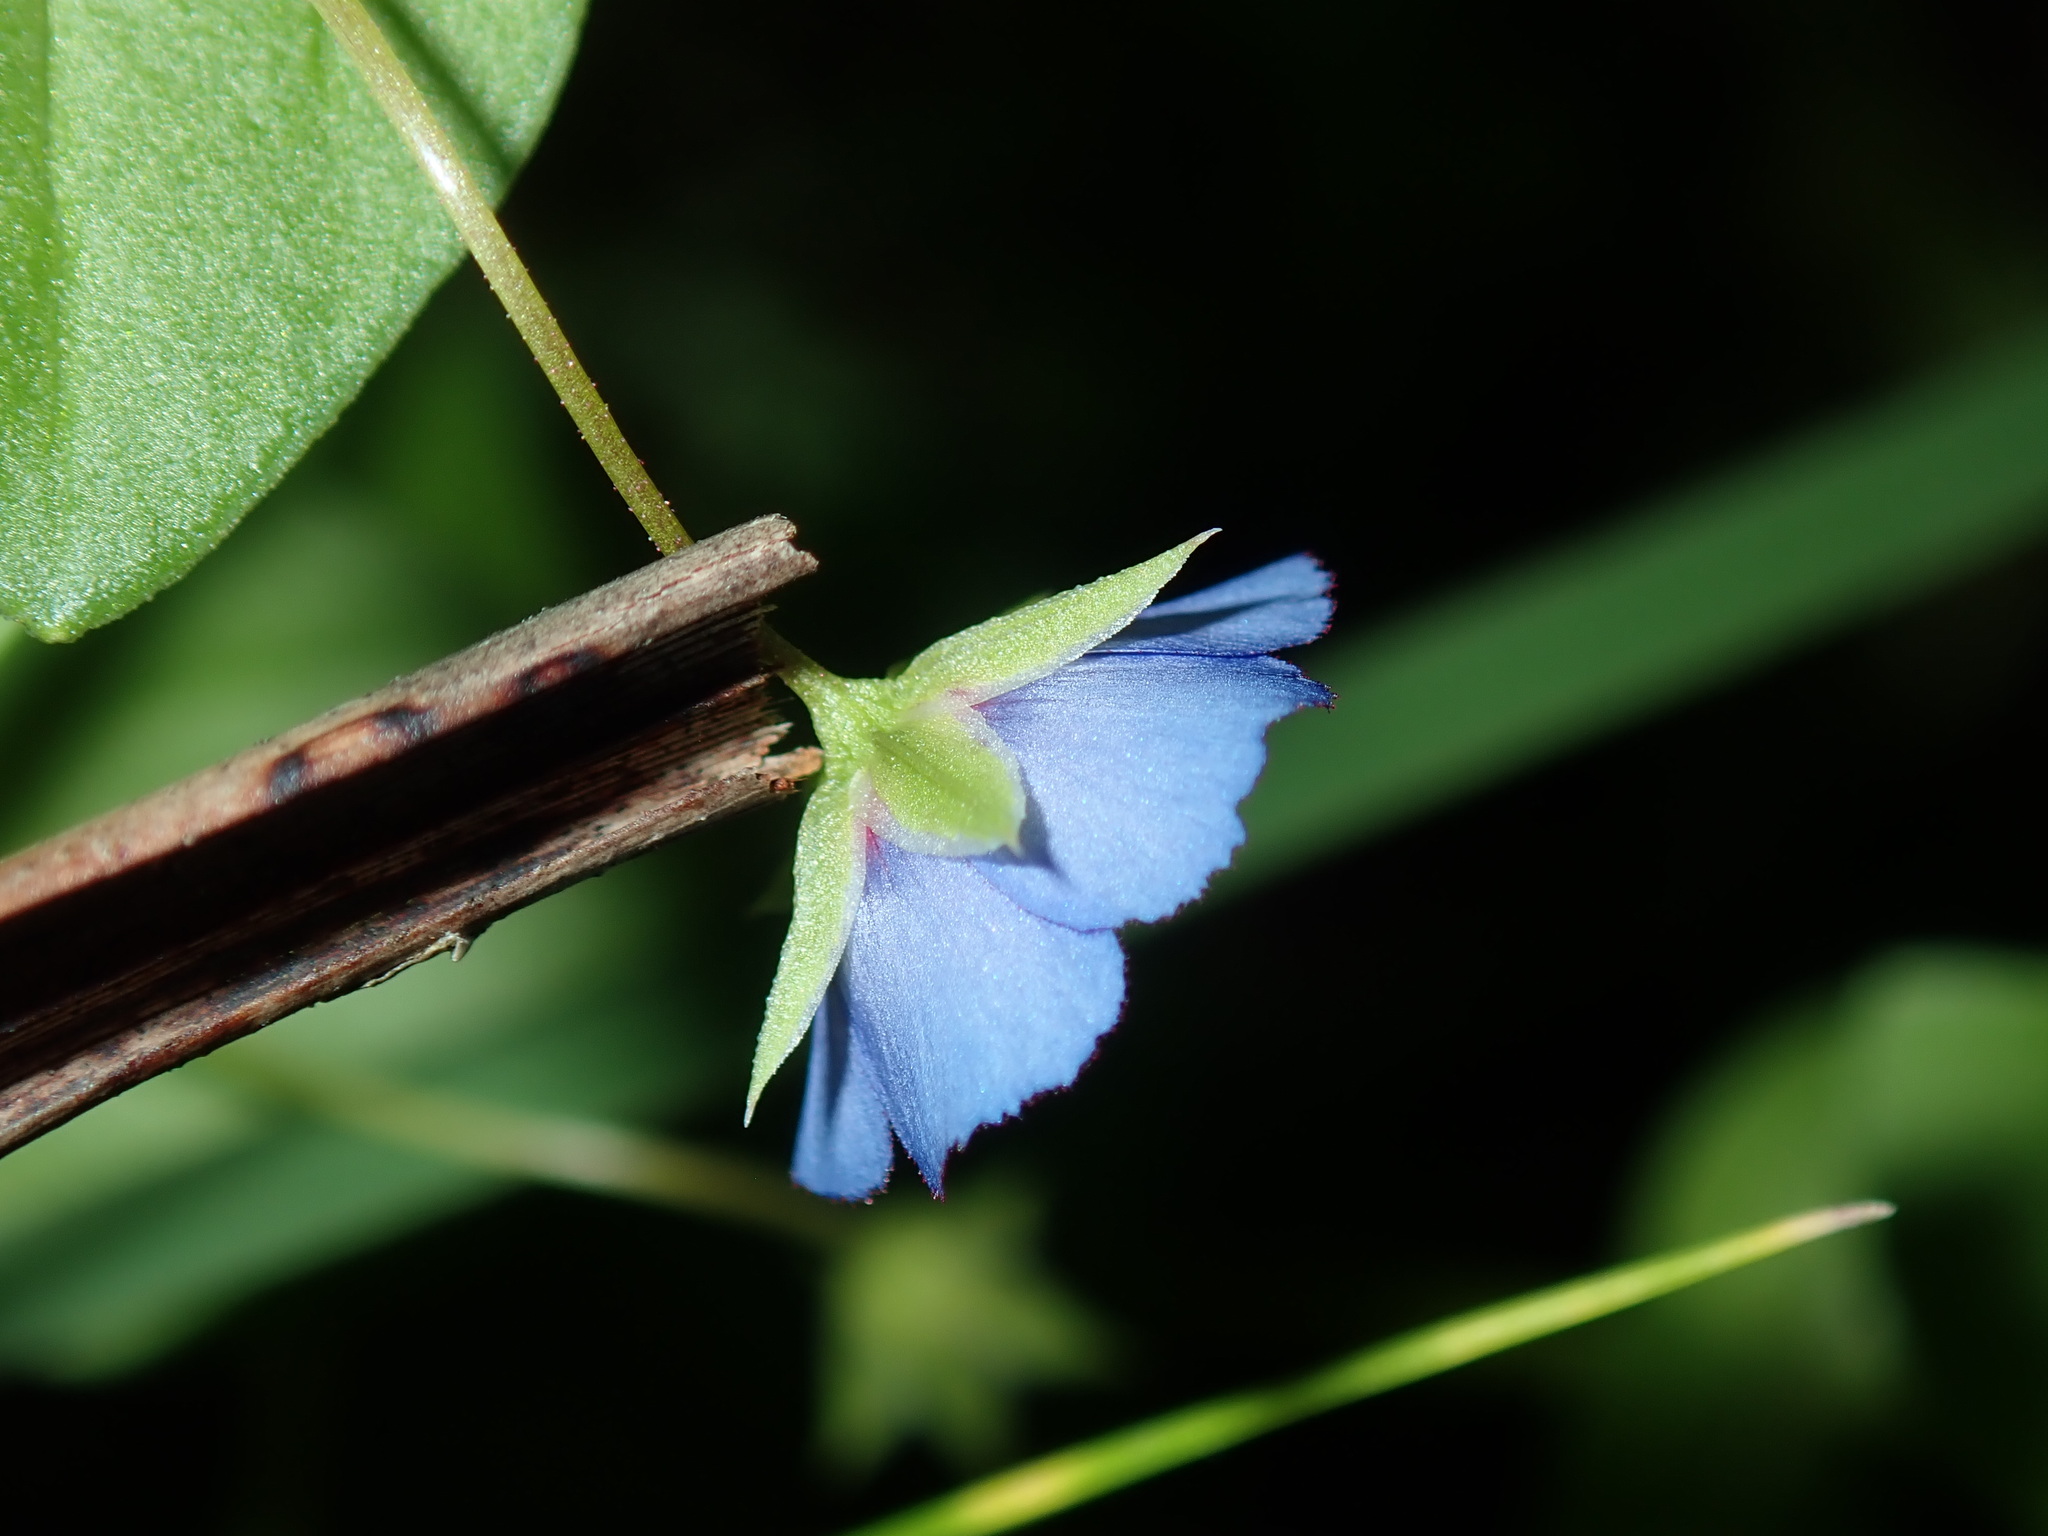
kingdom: Plantae
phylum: Tracheophyta
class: Magnoliopsida
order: Ericales
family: Primulaceae
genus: Lysimachia
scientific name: Lysimachia loeflingii
